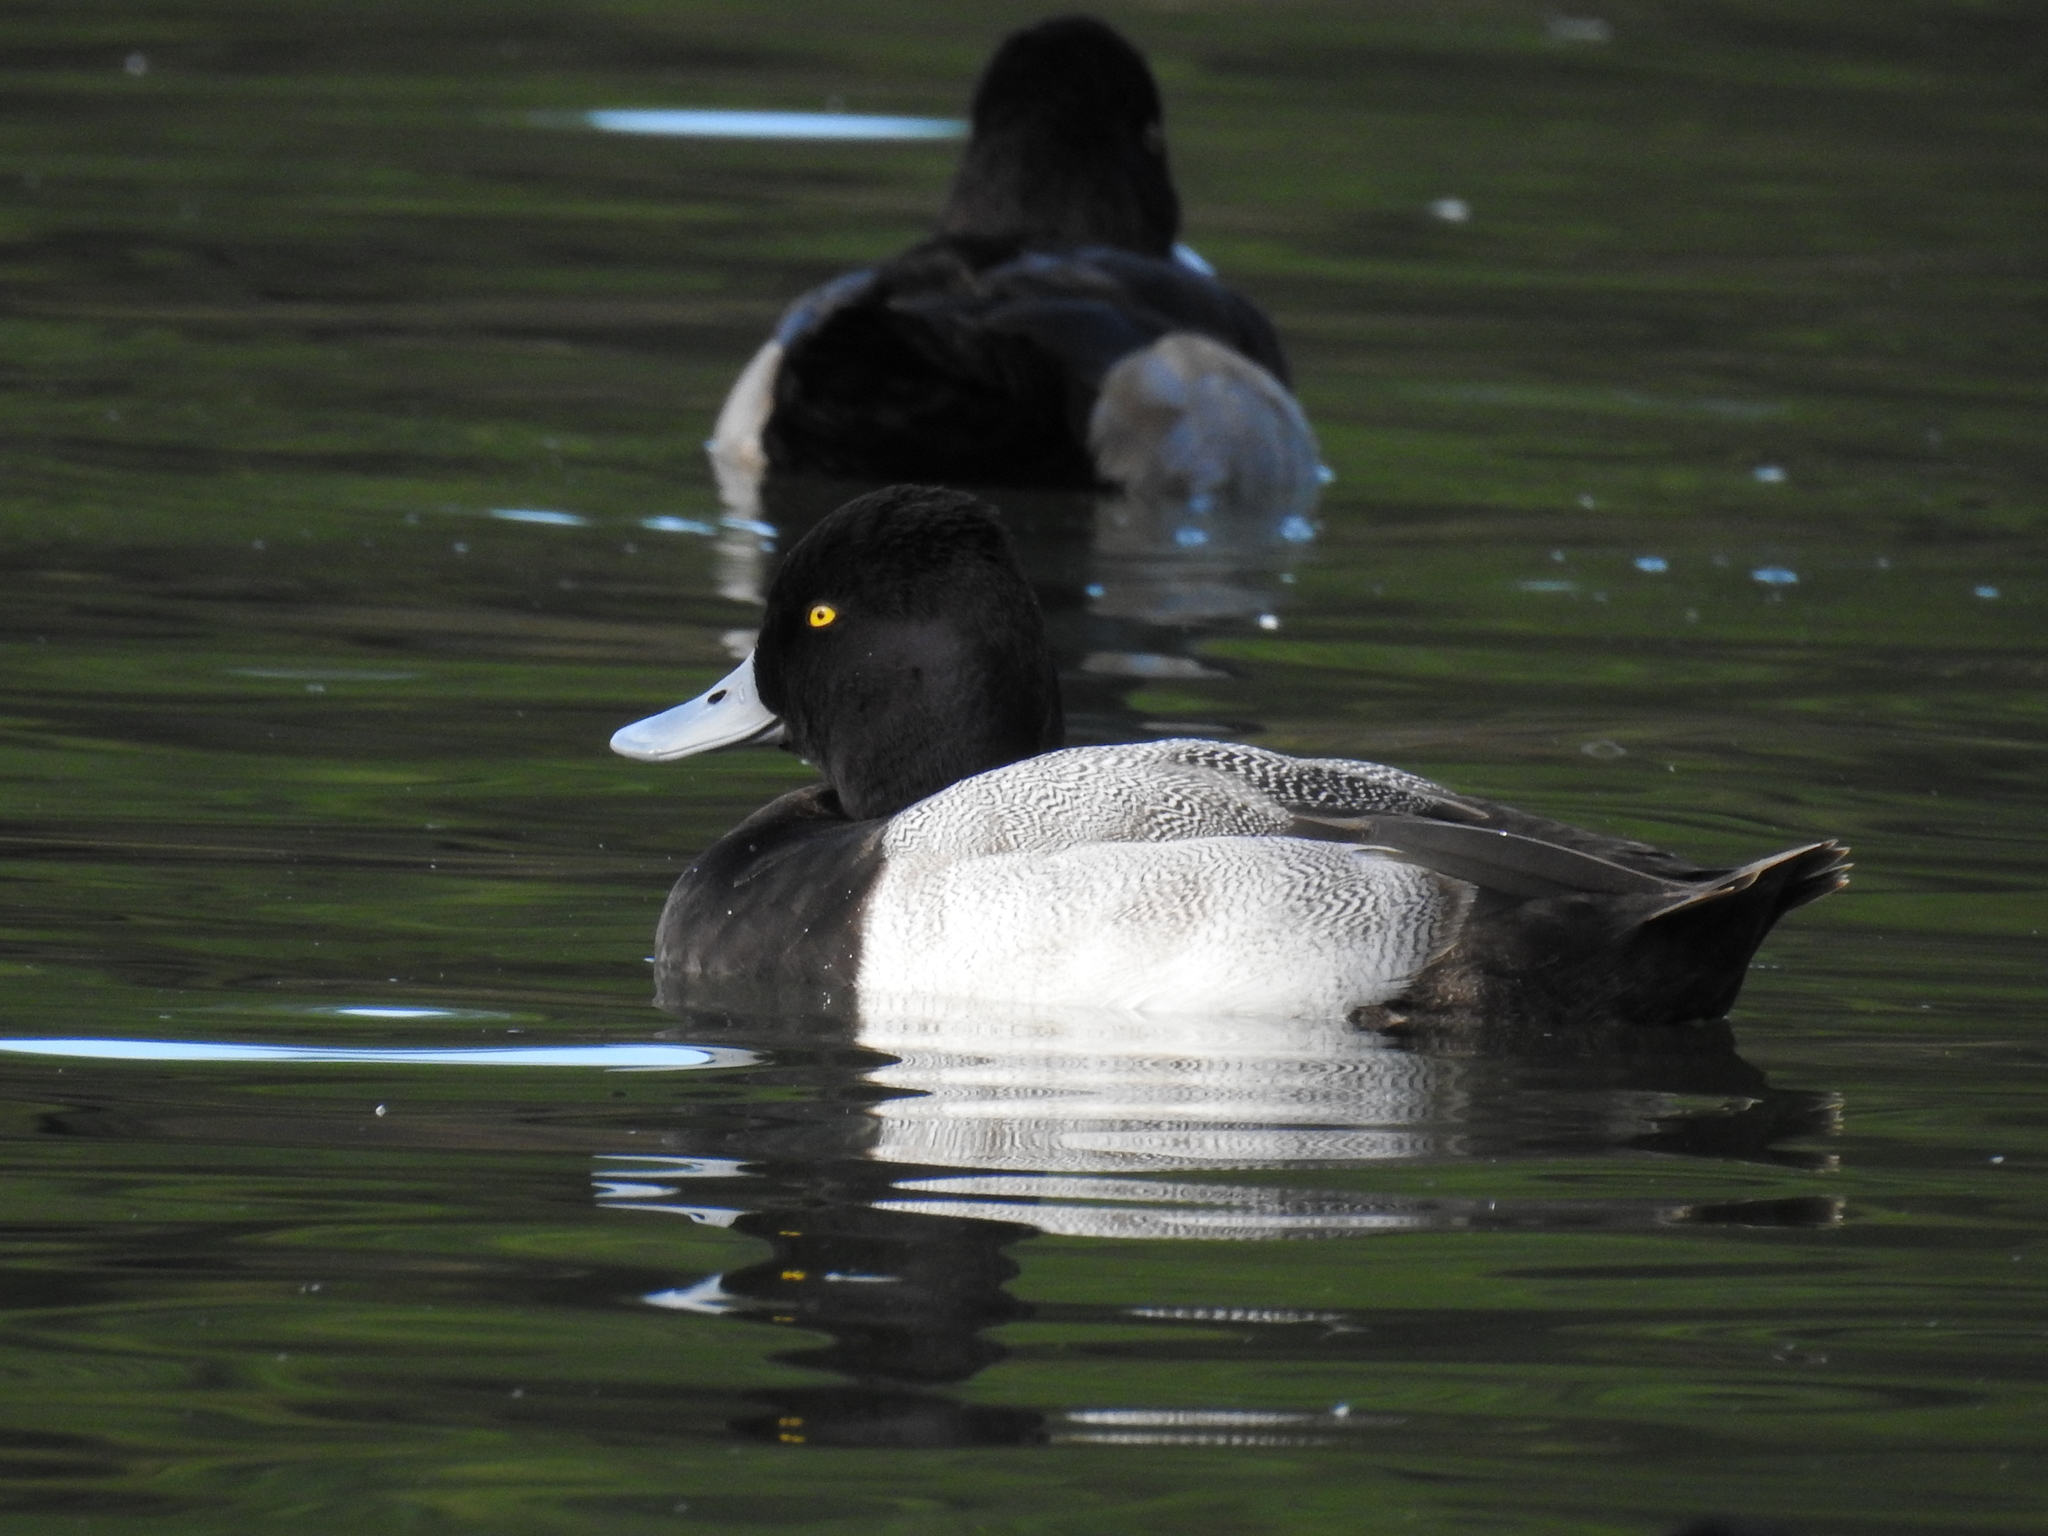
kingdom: Animalia
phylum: Chordata
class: Aves
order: Anseriformes
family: Anatidae
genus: Aythya
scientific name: Aythya affinis
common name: Lesser scaup
